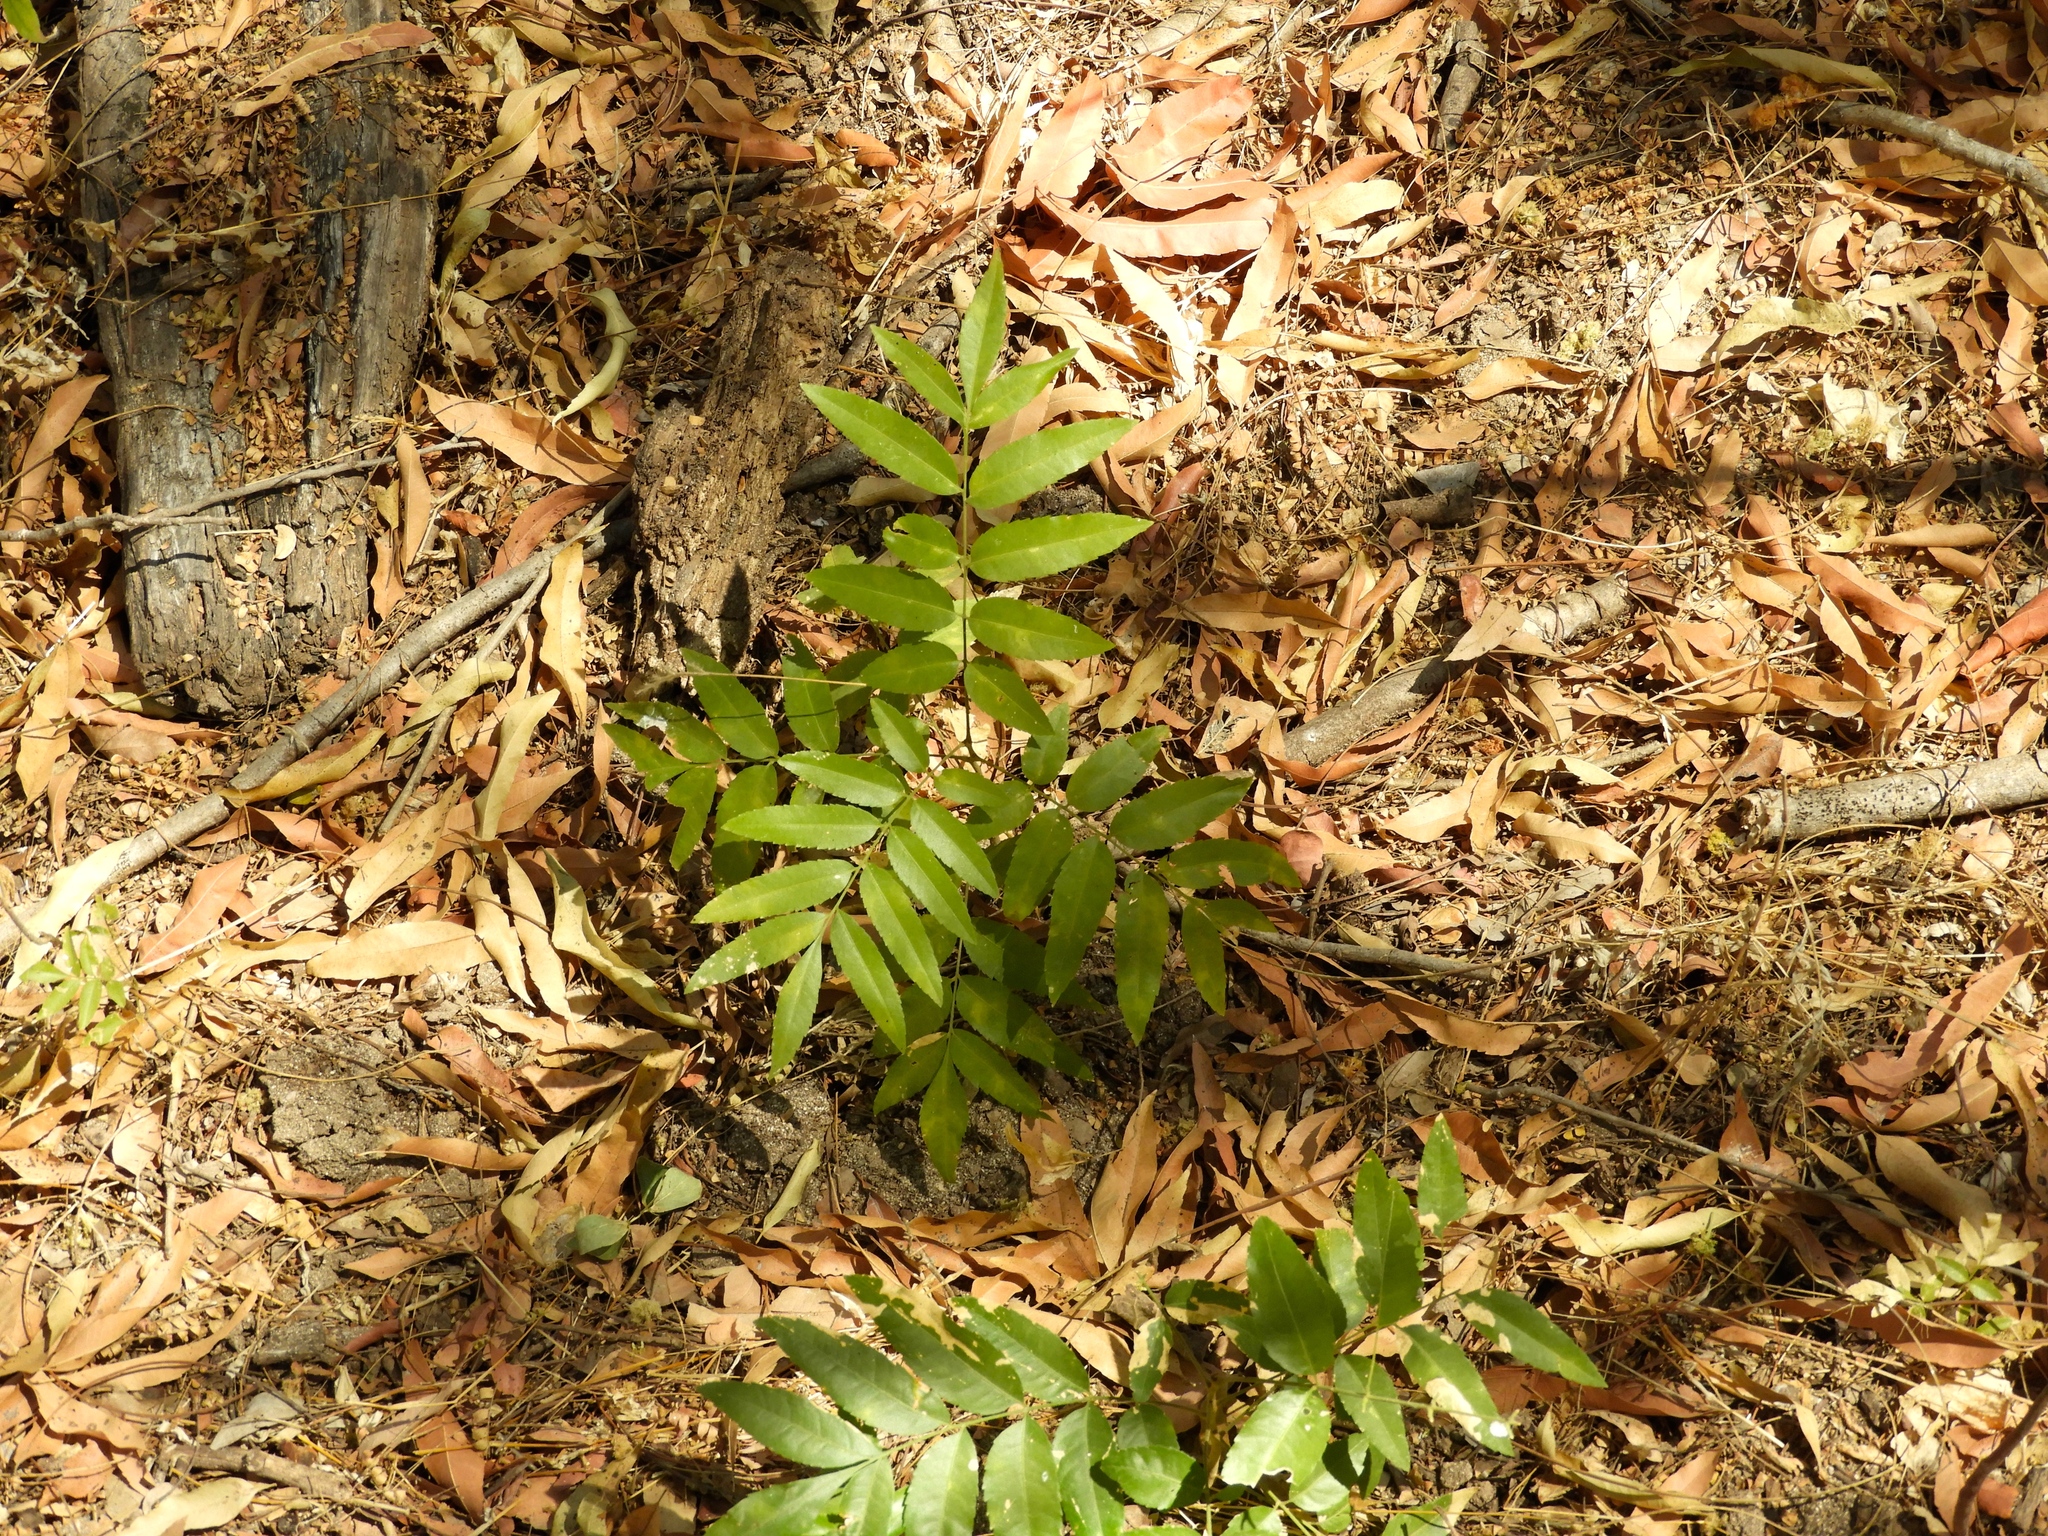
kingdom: Plantae
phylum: Tracheophyta
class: Magnoliopsida
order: Sapindales
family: Sapindaceae
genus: Thouinidium
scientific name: Thouinidium decandrum
